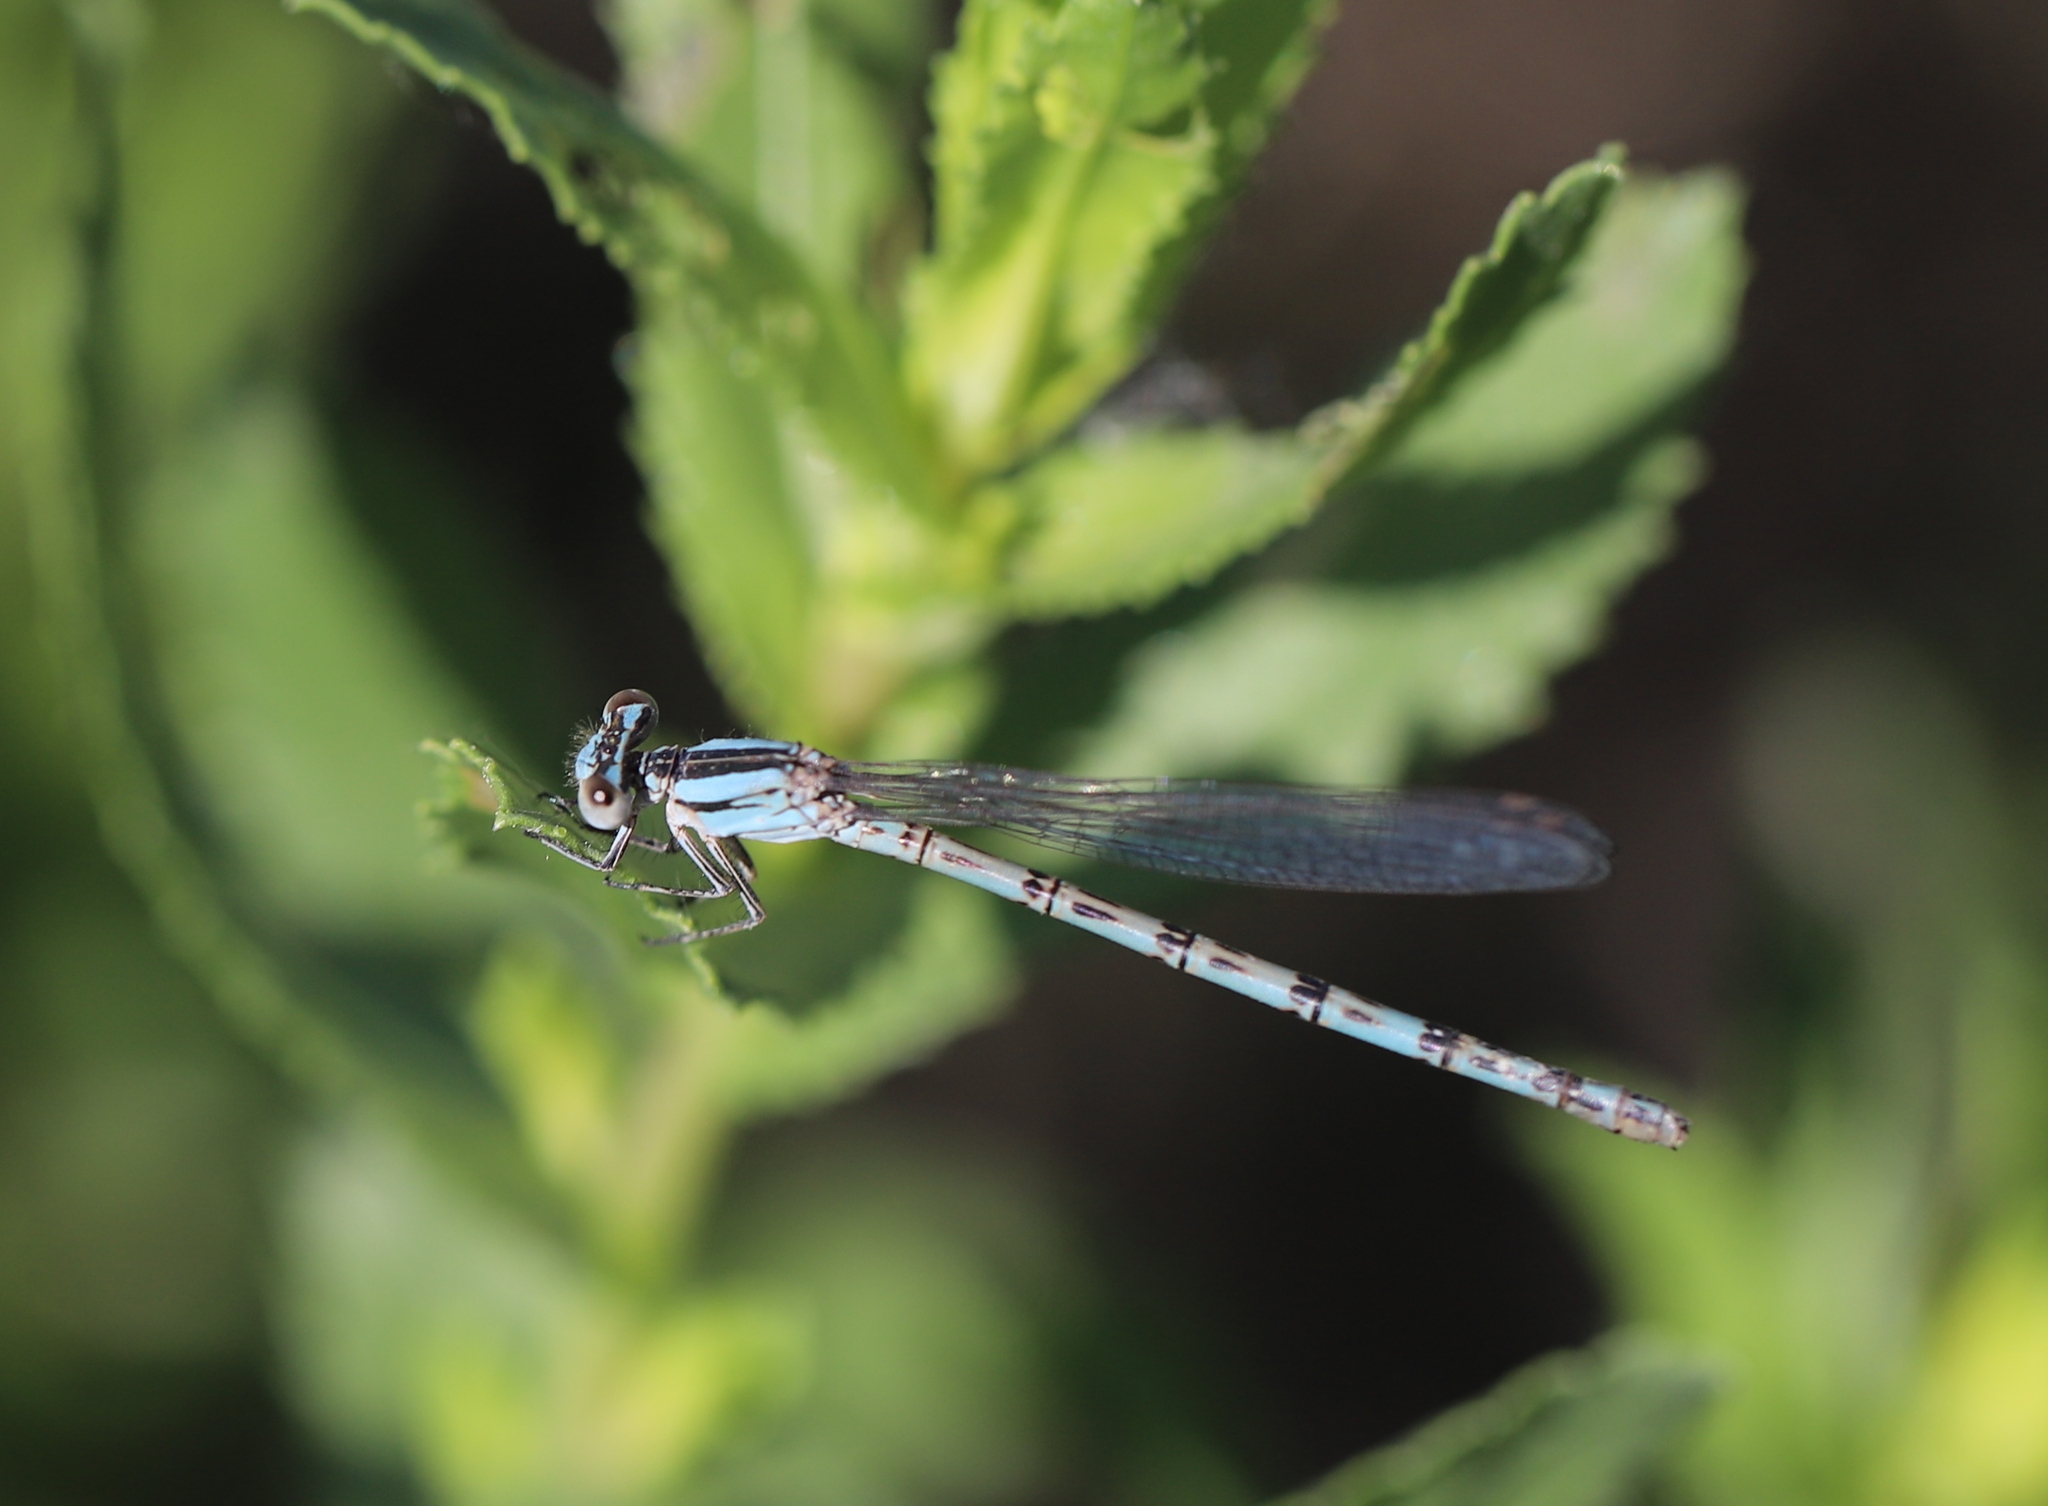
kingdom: Animalia
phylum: Arthropoda
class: Insecta
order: Odonata
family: Coenagrionidae
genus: Argia
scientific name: Argia alberta
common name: Paiute dancer
